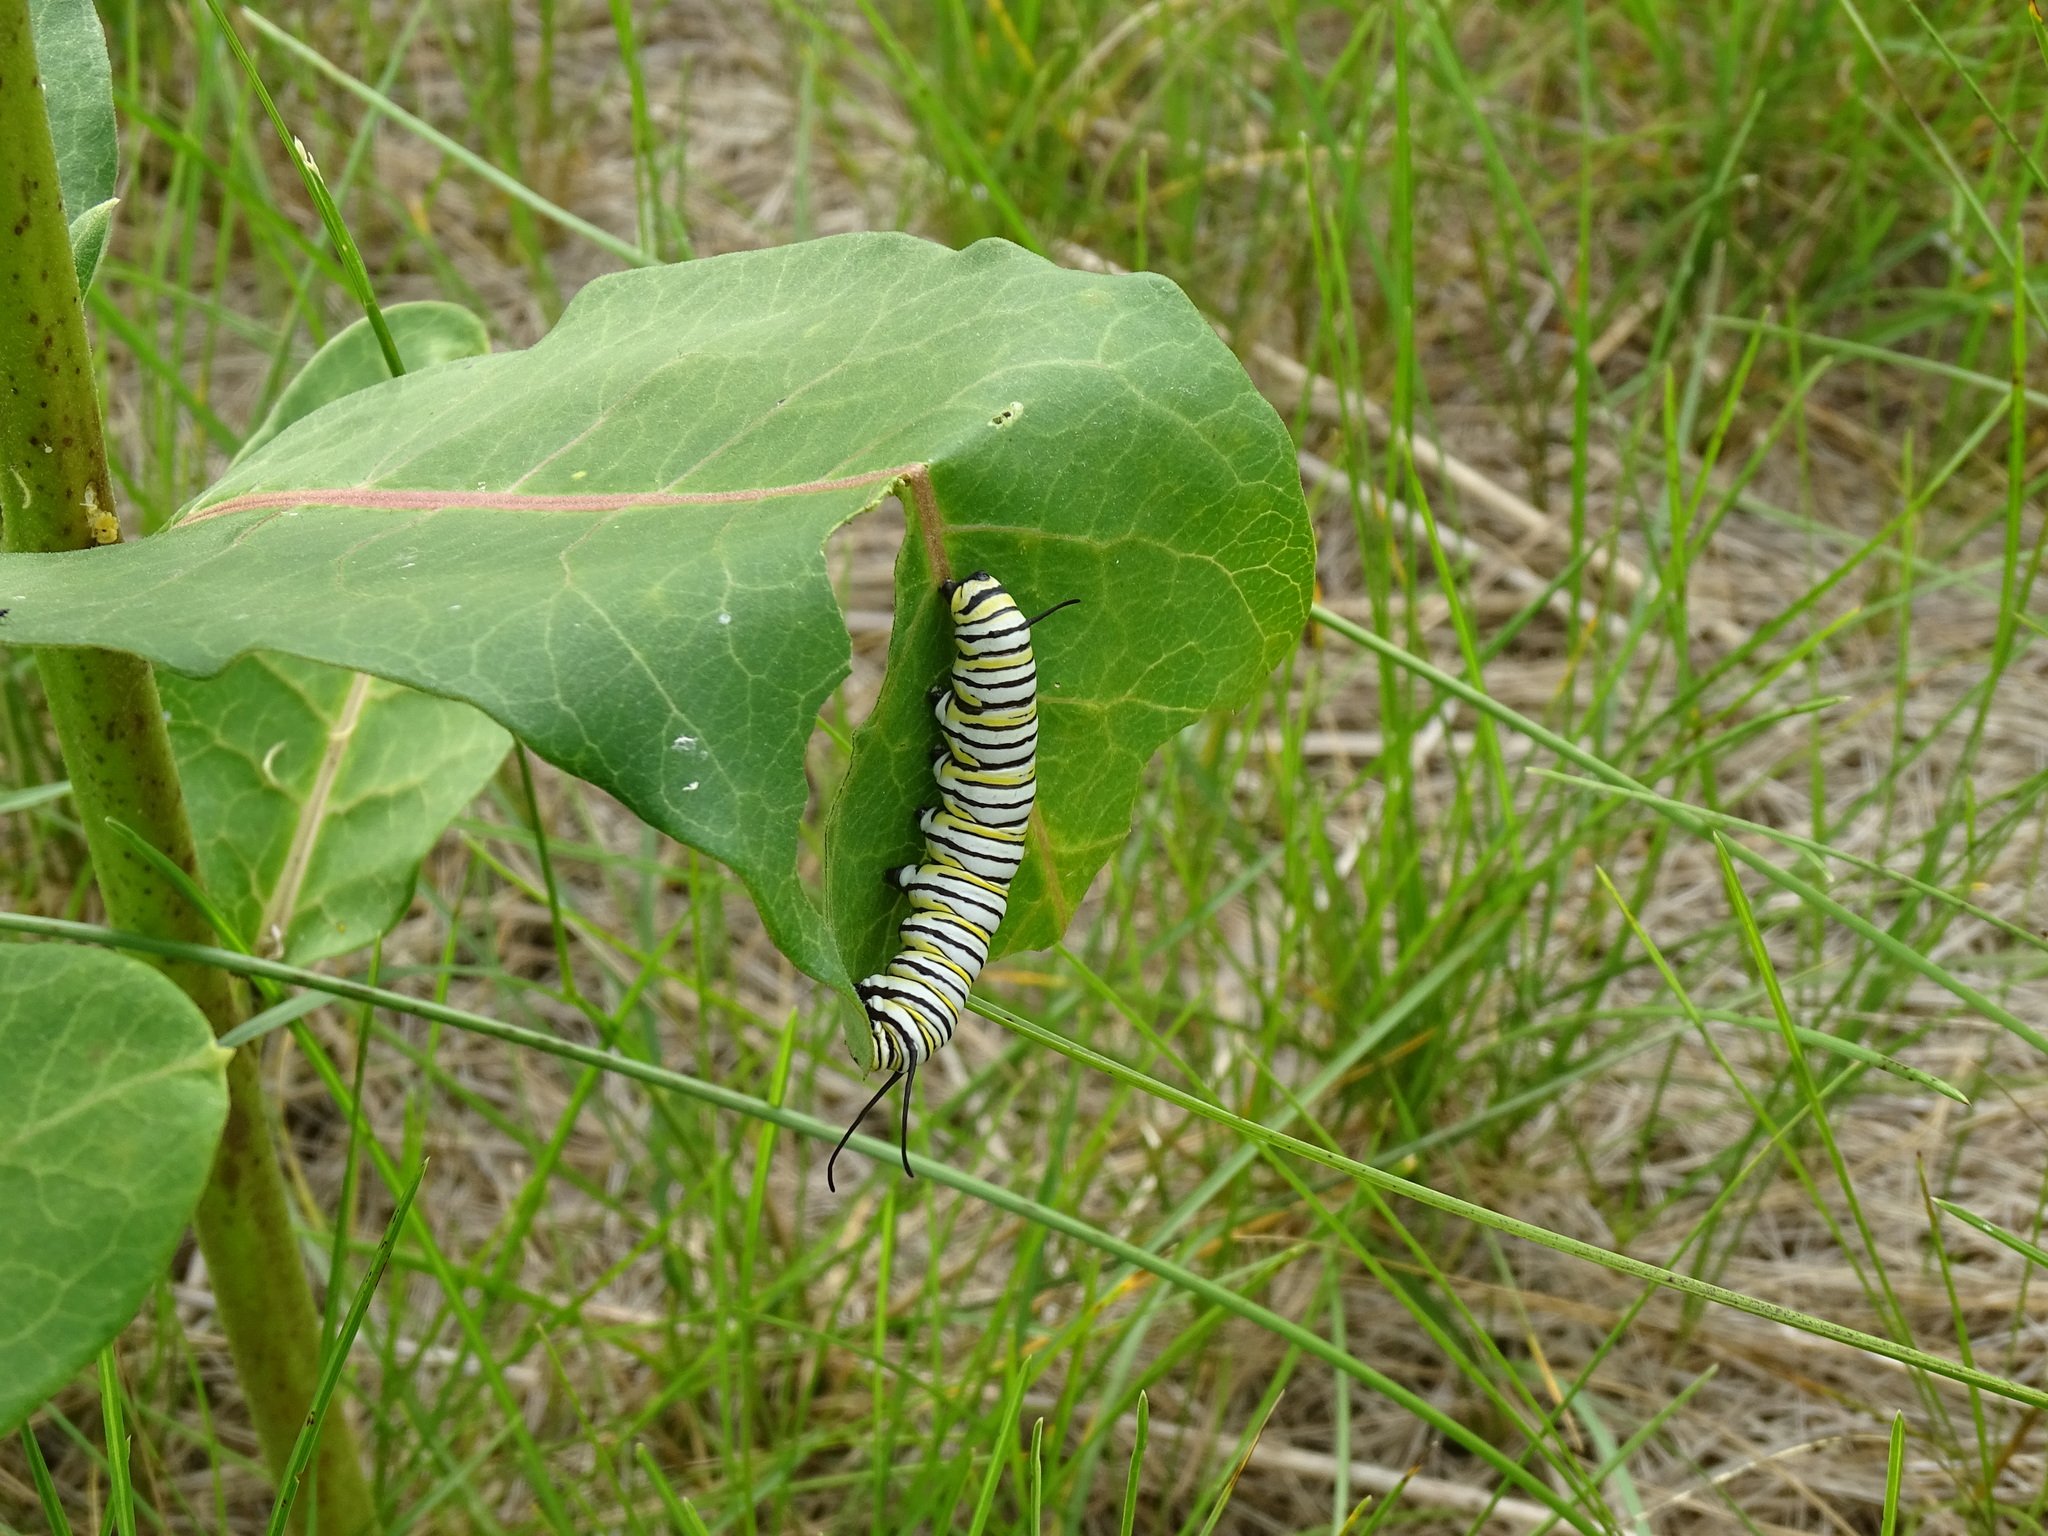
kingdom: Animalia
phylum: Arthropoda
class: Insecta
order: Lepidoptera
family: Nymphalidae
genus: Danaus
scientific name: Danaus plexippus
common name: Monarch
